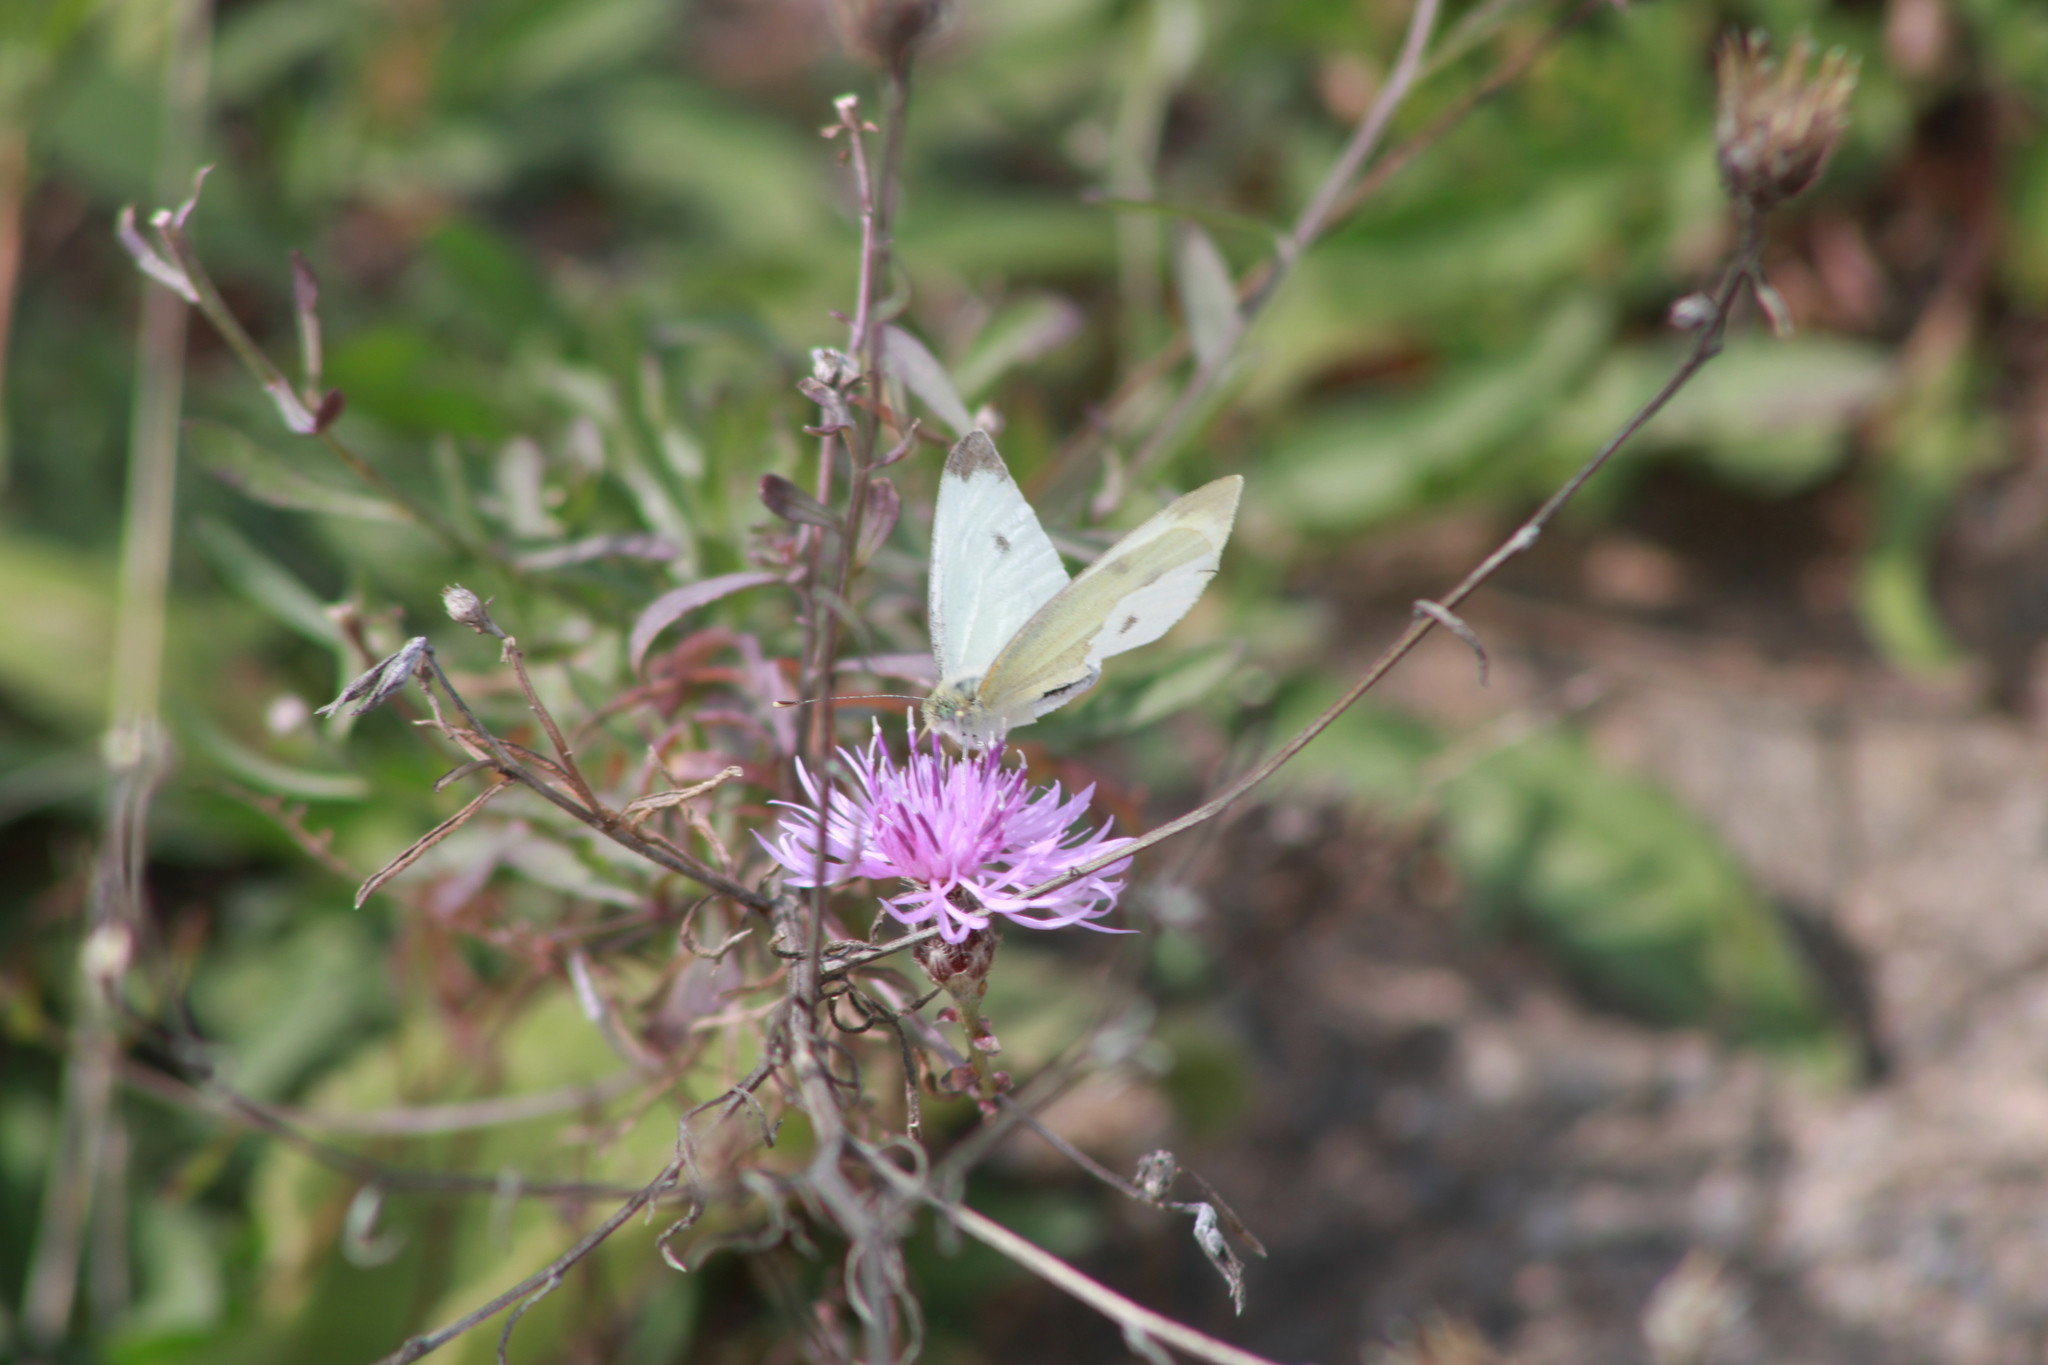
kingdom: Animalia
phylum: Arthropoda
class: Insecta
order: Lepidoptera
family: Pieridae
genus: Pieris
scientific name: Pieris rapae
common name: Small white
